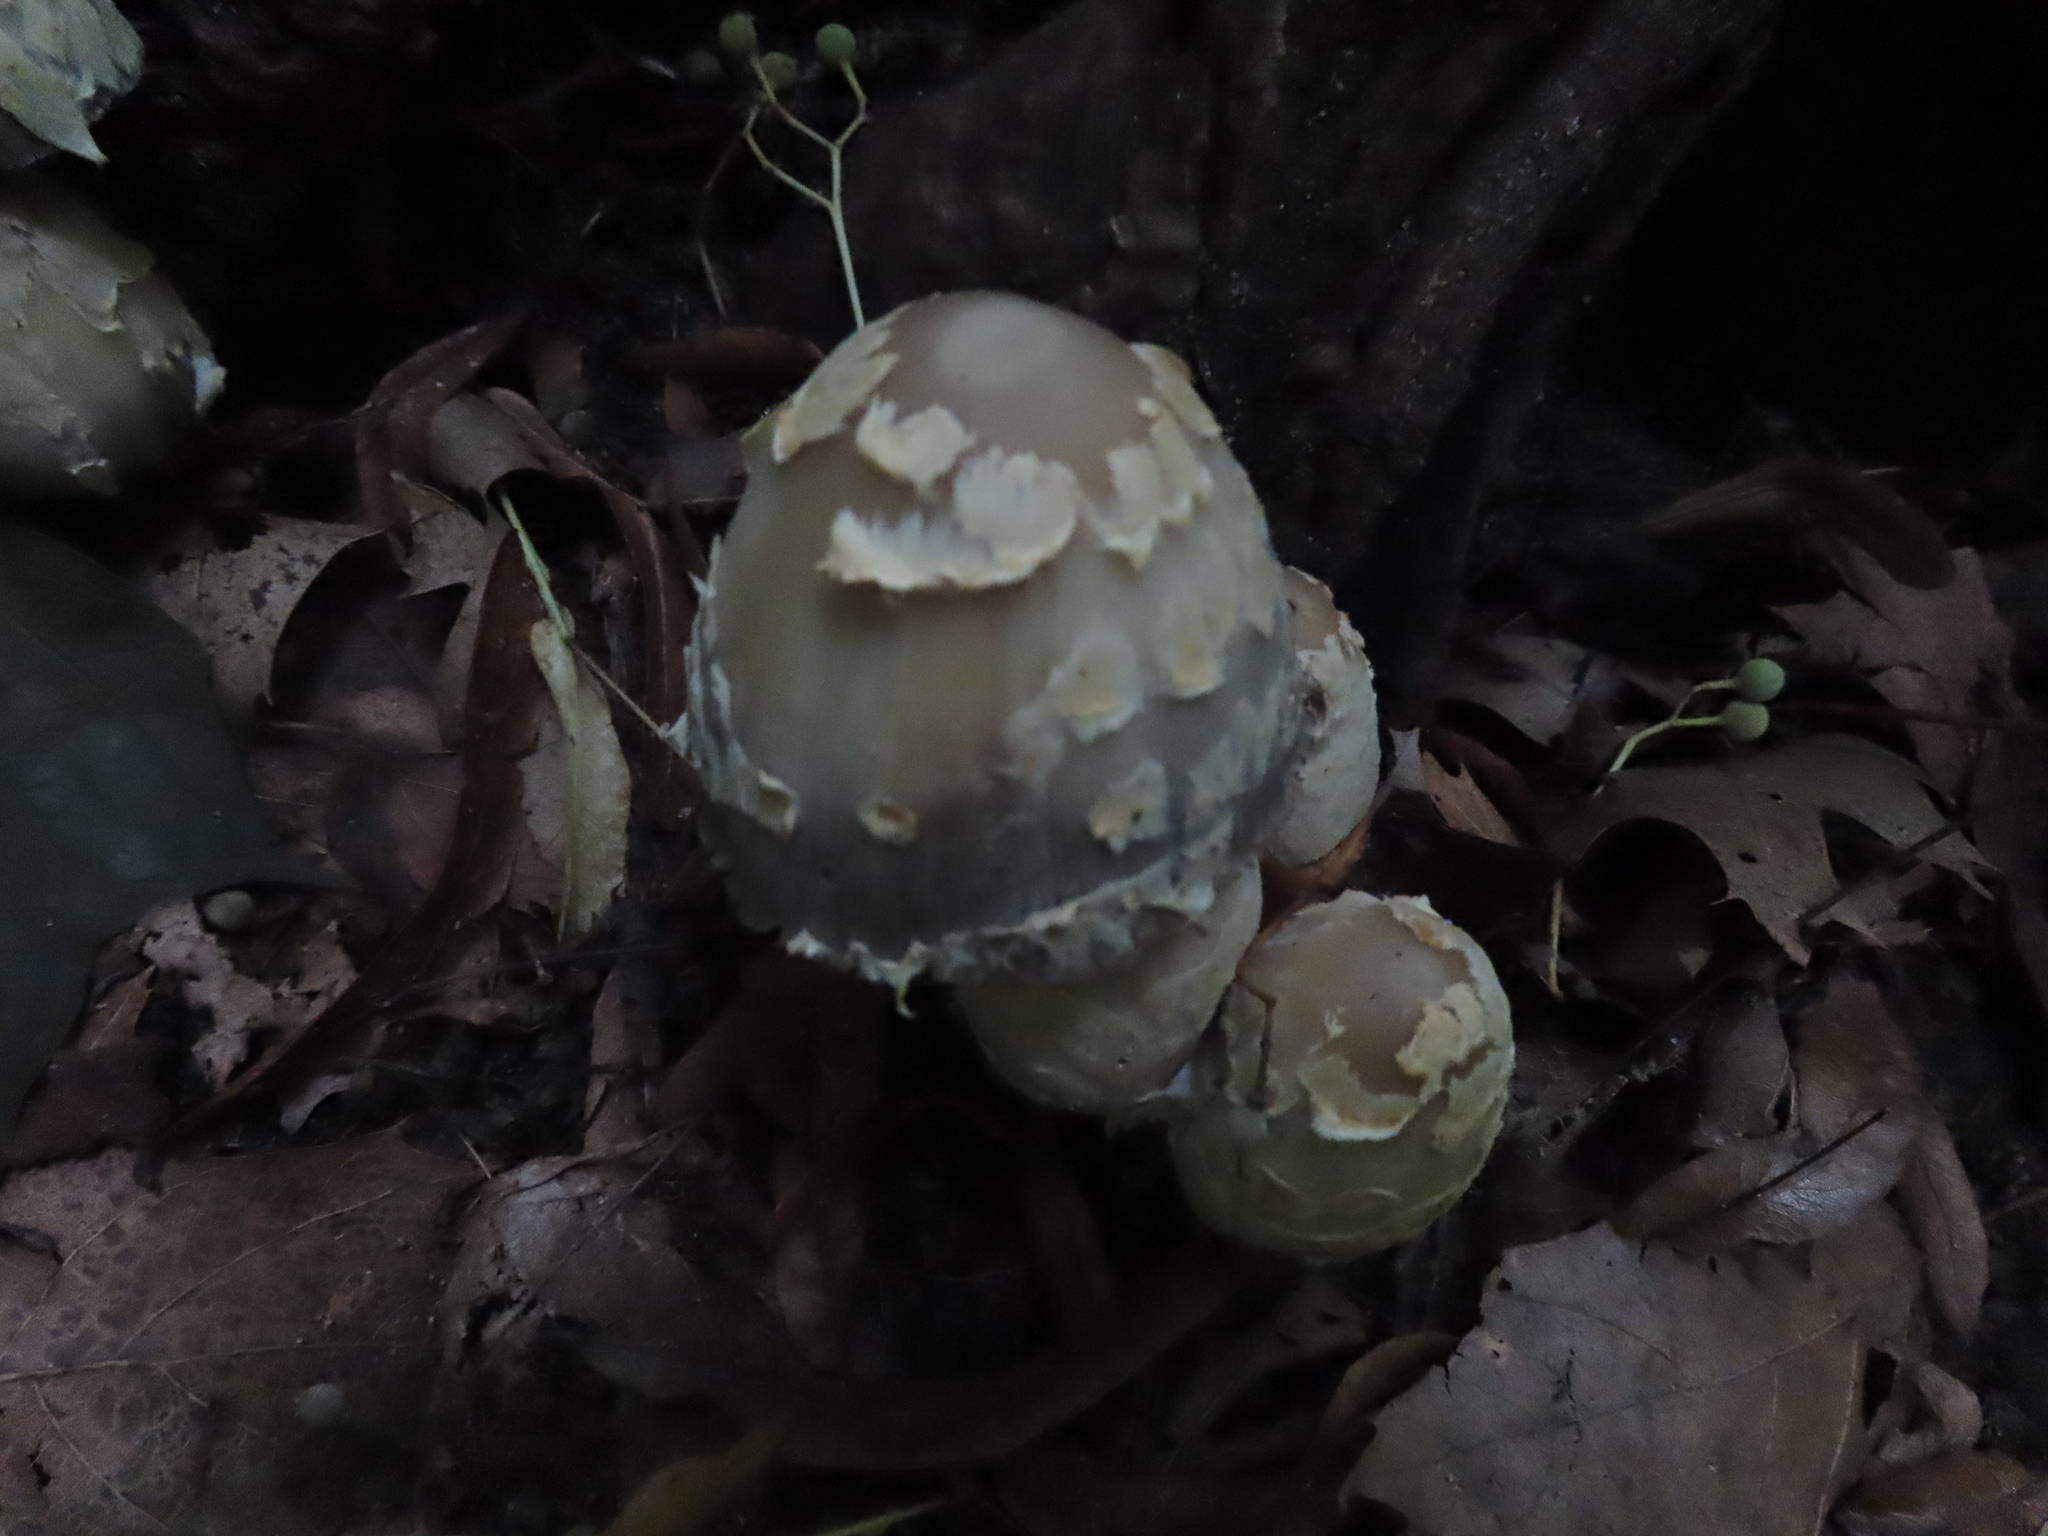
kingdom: Fungi
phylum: Basidiomycota
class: Agaricomycetes
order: Agaricales
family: Psathyrellaceae
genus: Coprinopsis
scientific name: Coprinopsis variegata
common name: Scaly ink cap
